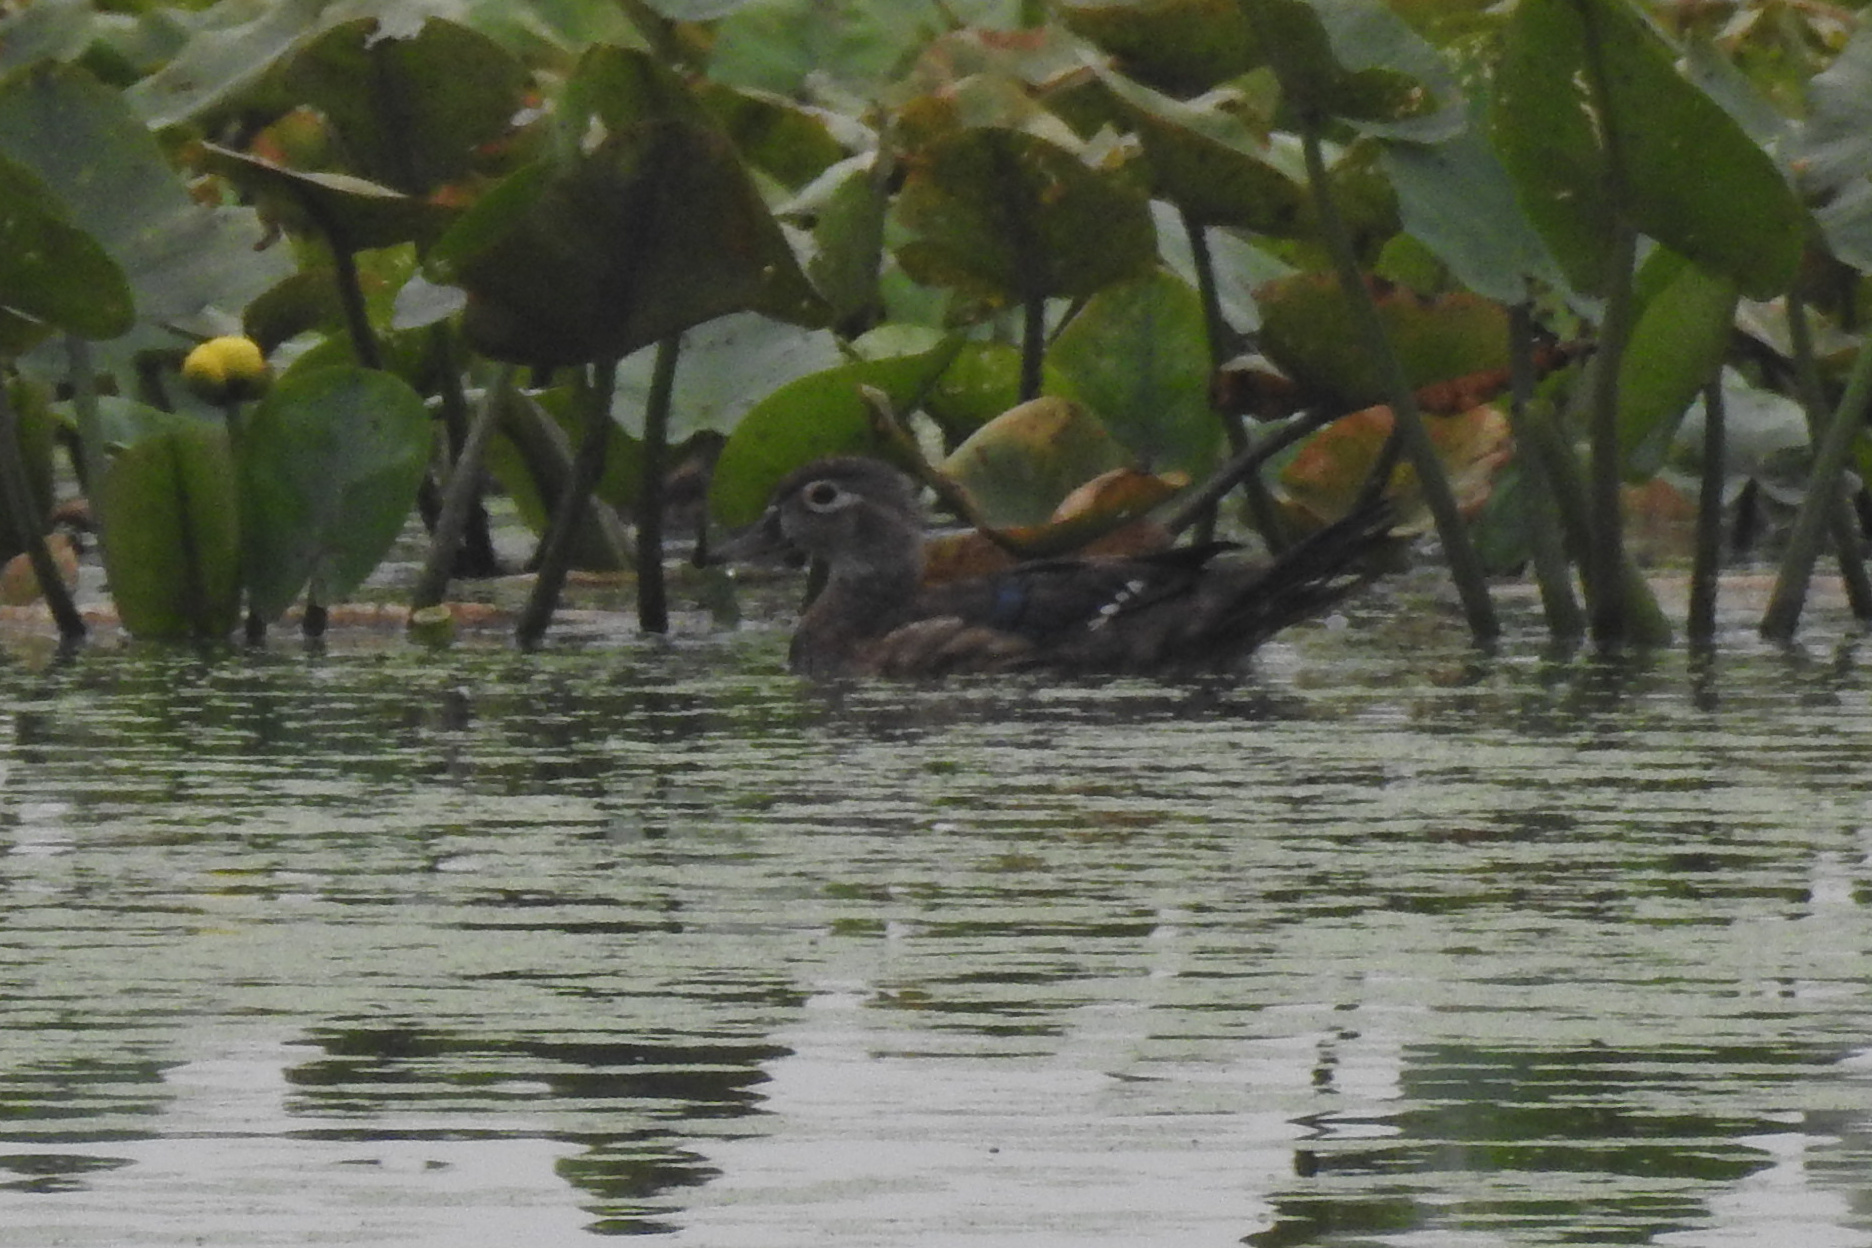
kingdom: Animalia
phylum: Chordata
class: Aves
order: Anseriformes
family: Anatidae
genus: Aix
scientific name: Aix sponsa
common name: Wood duck
